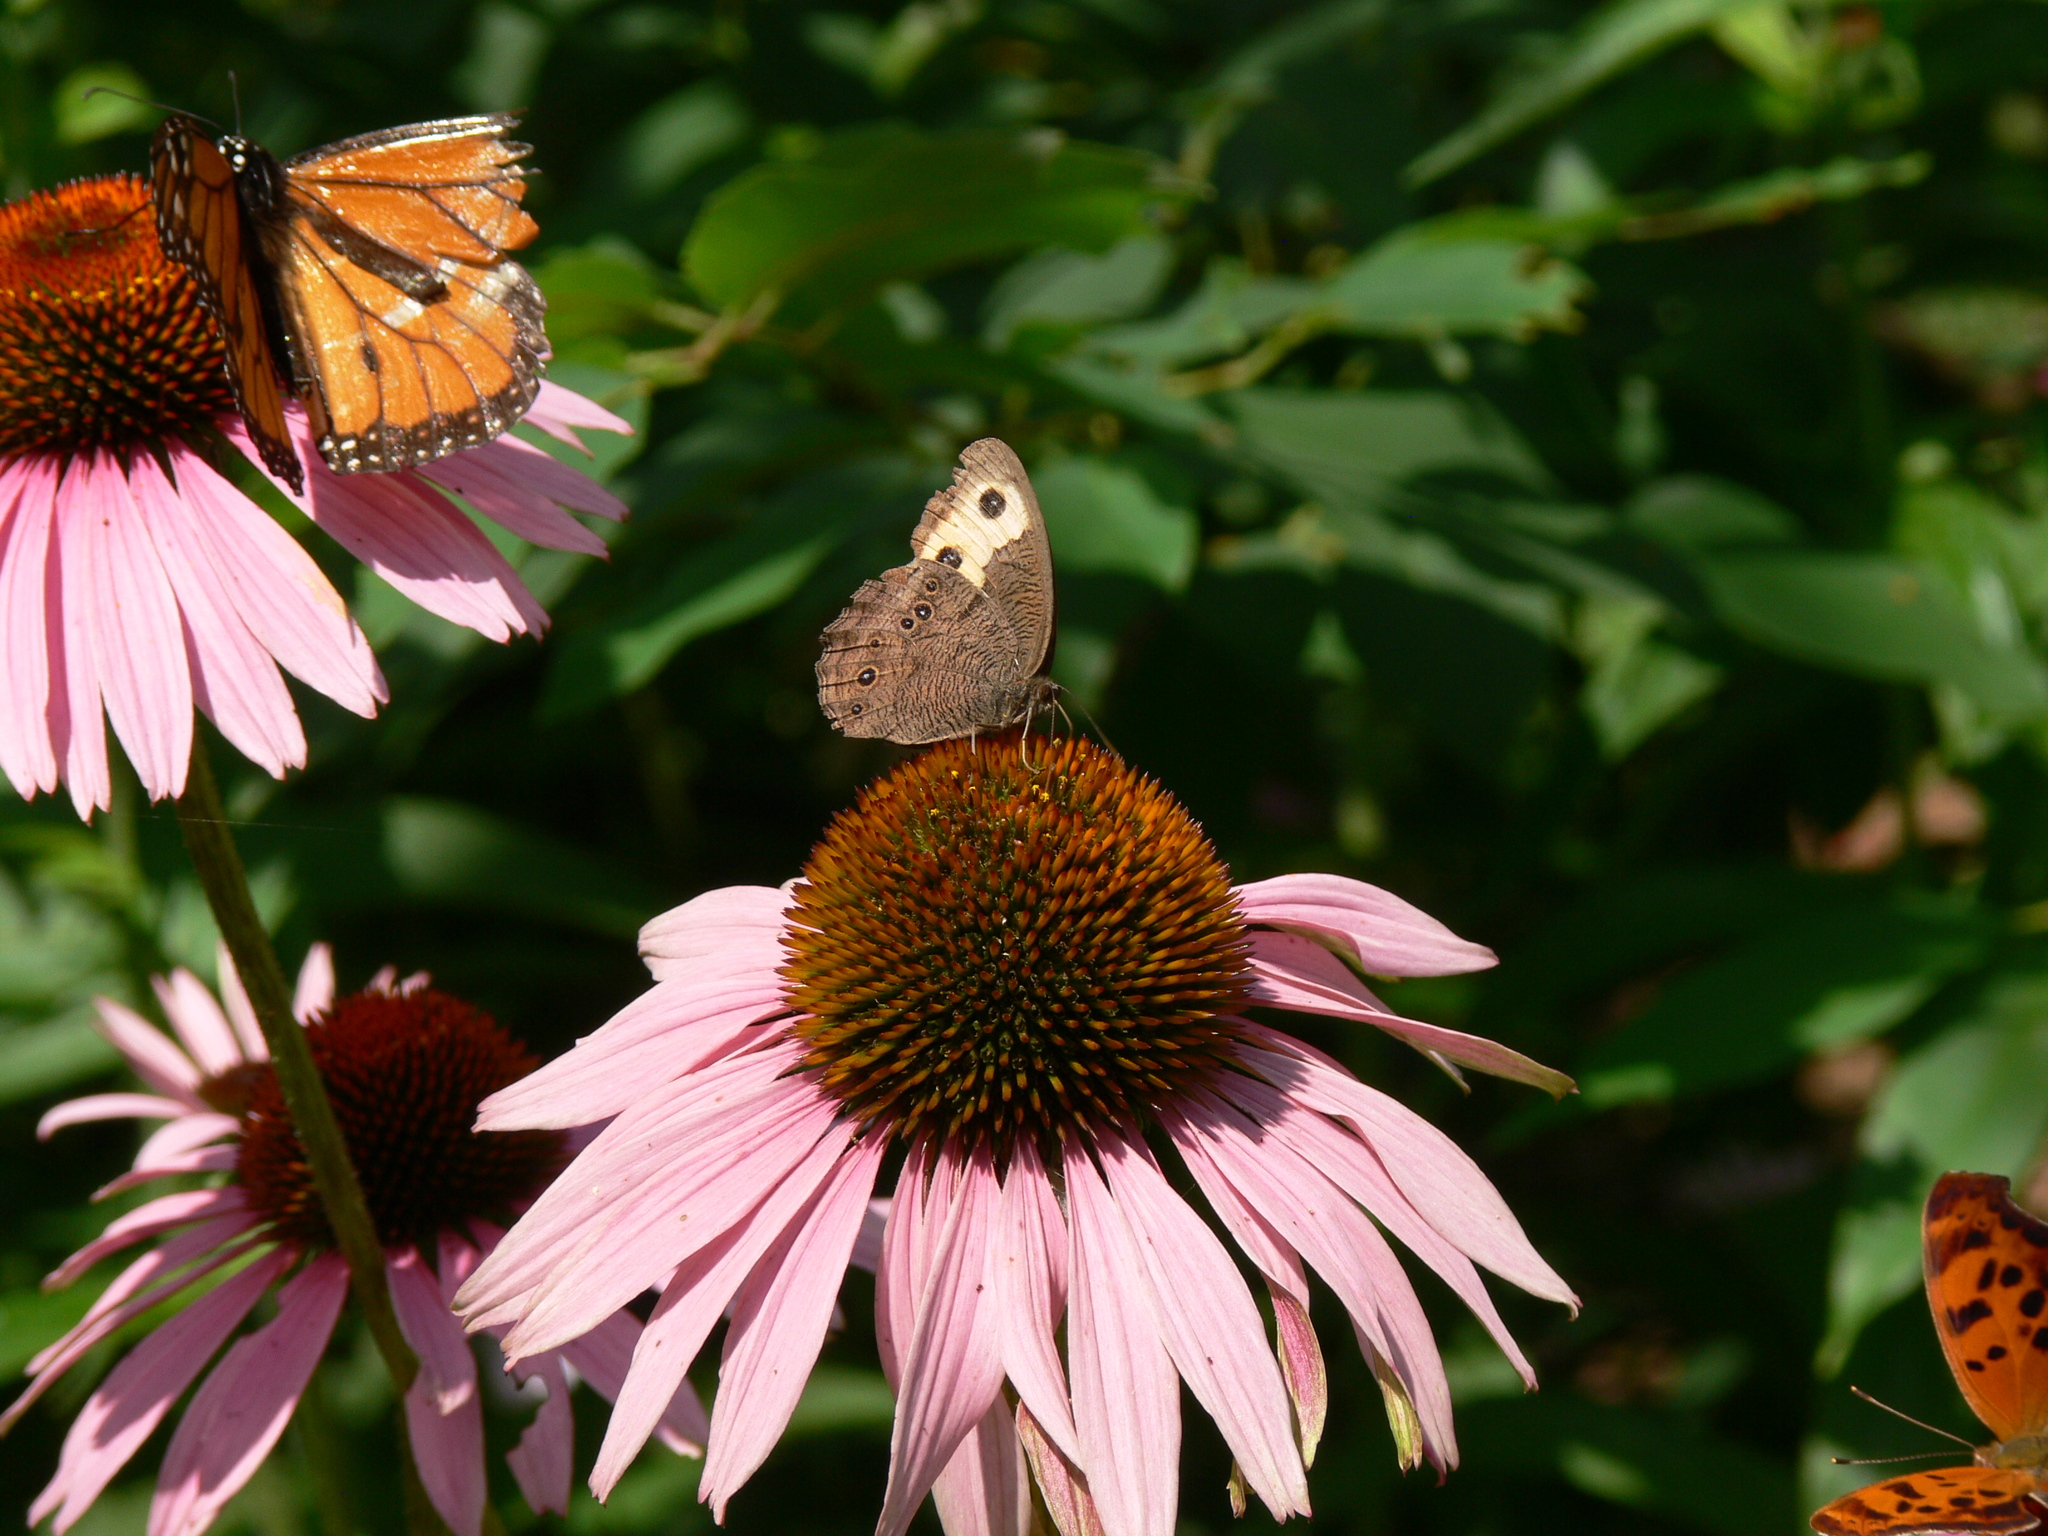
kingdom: Animalia
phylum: Arthropoda
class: Insecta
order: Lepidoptera
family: Nymphalidae
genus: Danaus
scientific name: Danaus plexippus
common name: Monarch
